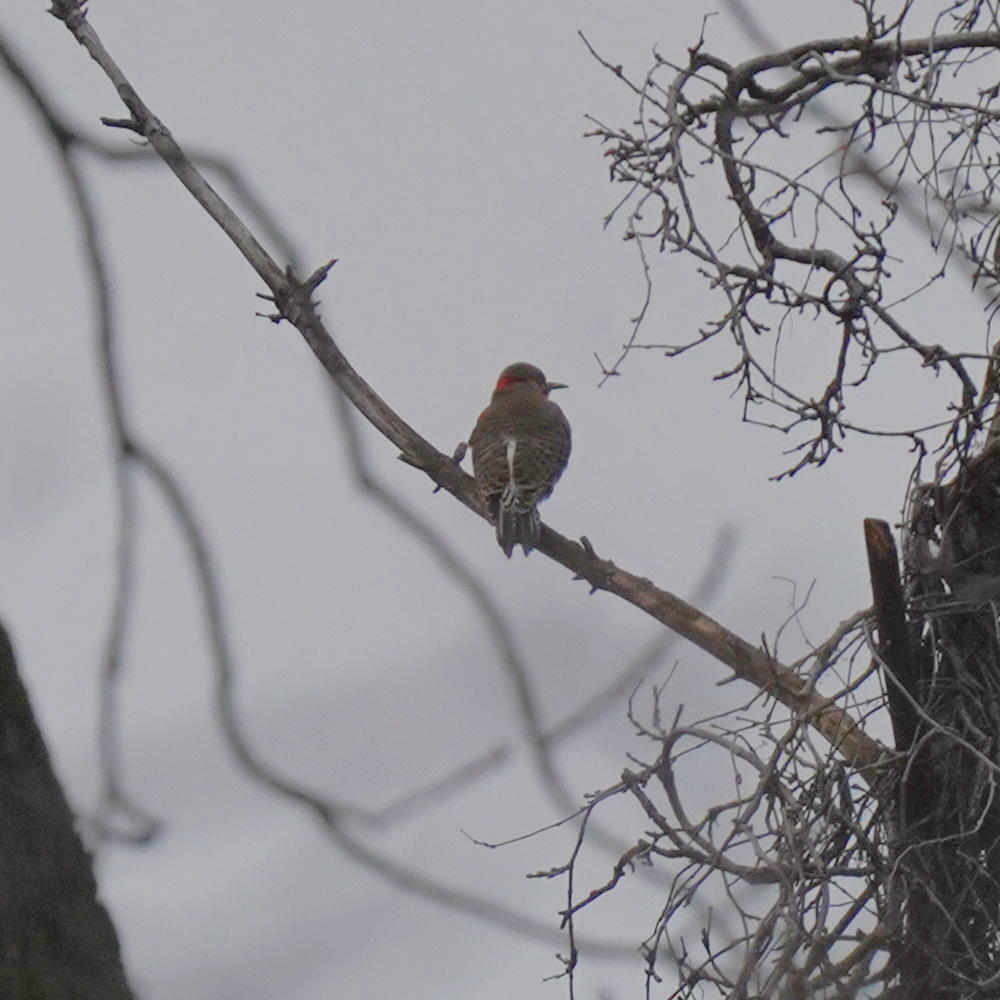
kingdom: Animalia
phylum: Chordata
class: Aves
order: Piciformes
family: Picidae
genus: Colaptes
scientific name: Colaptes auratus
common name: Northern flicker
